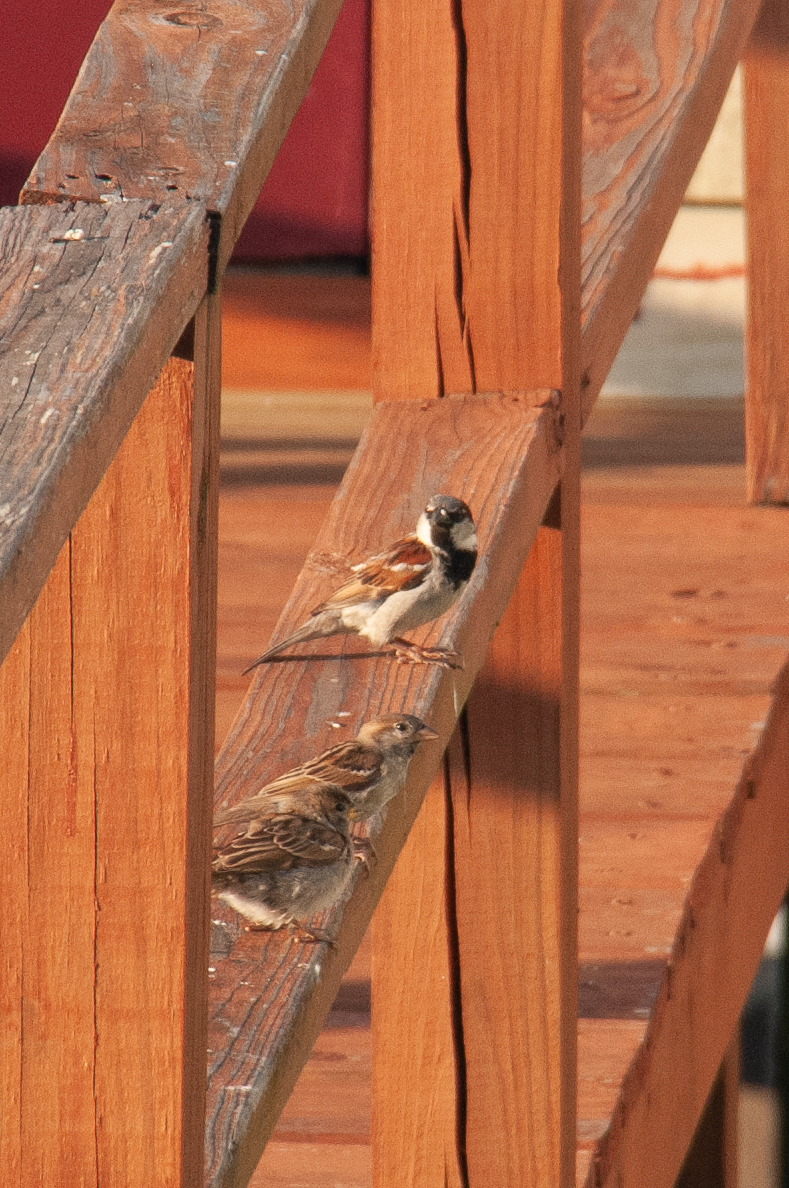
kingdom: Animalia
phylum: Chordata
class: Aves
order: Passeriformes
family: Passeridae
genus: Passer
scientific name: Passer domesticus
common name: House sparrow
